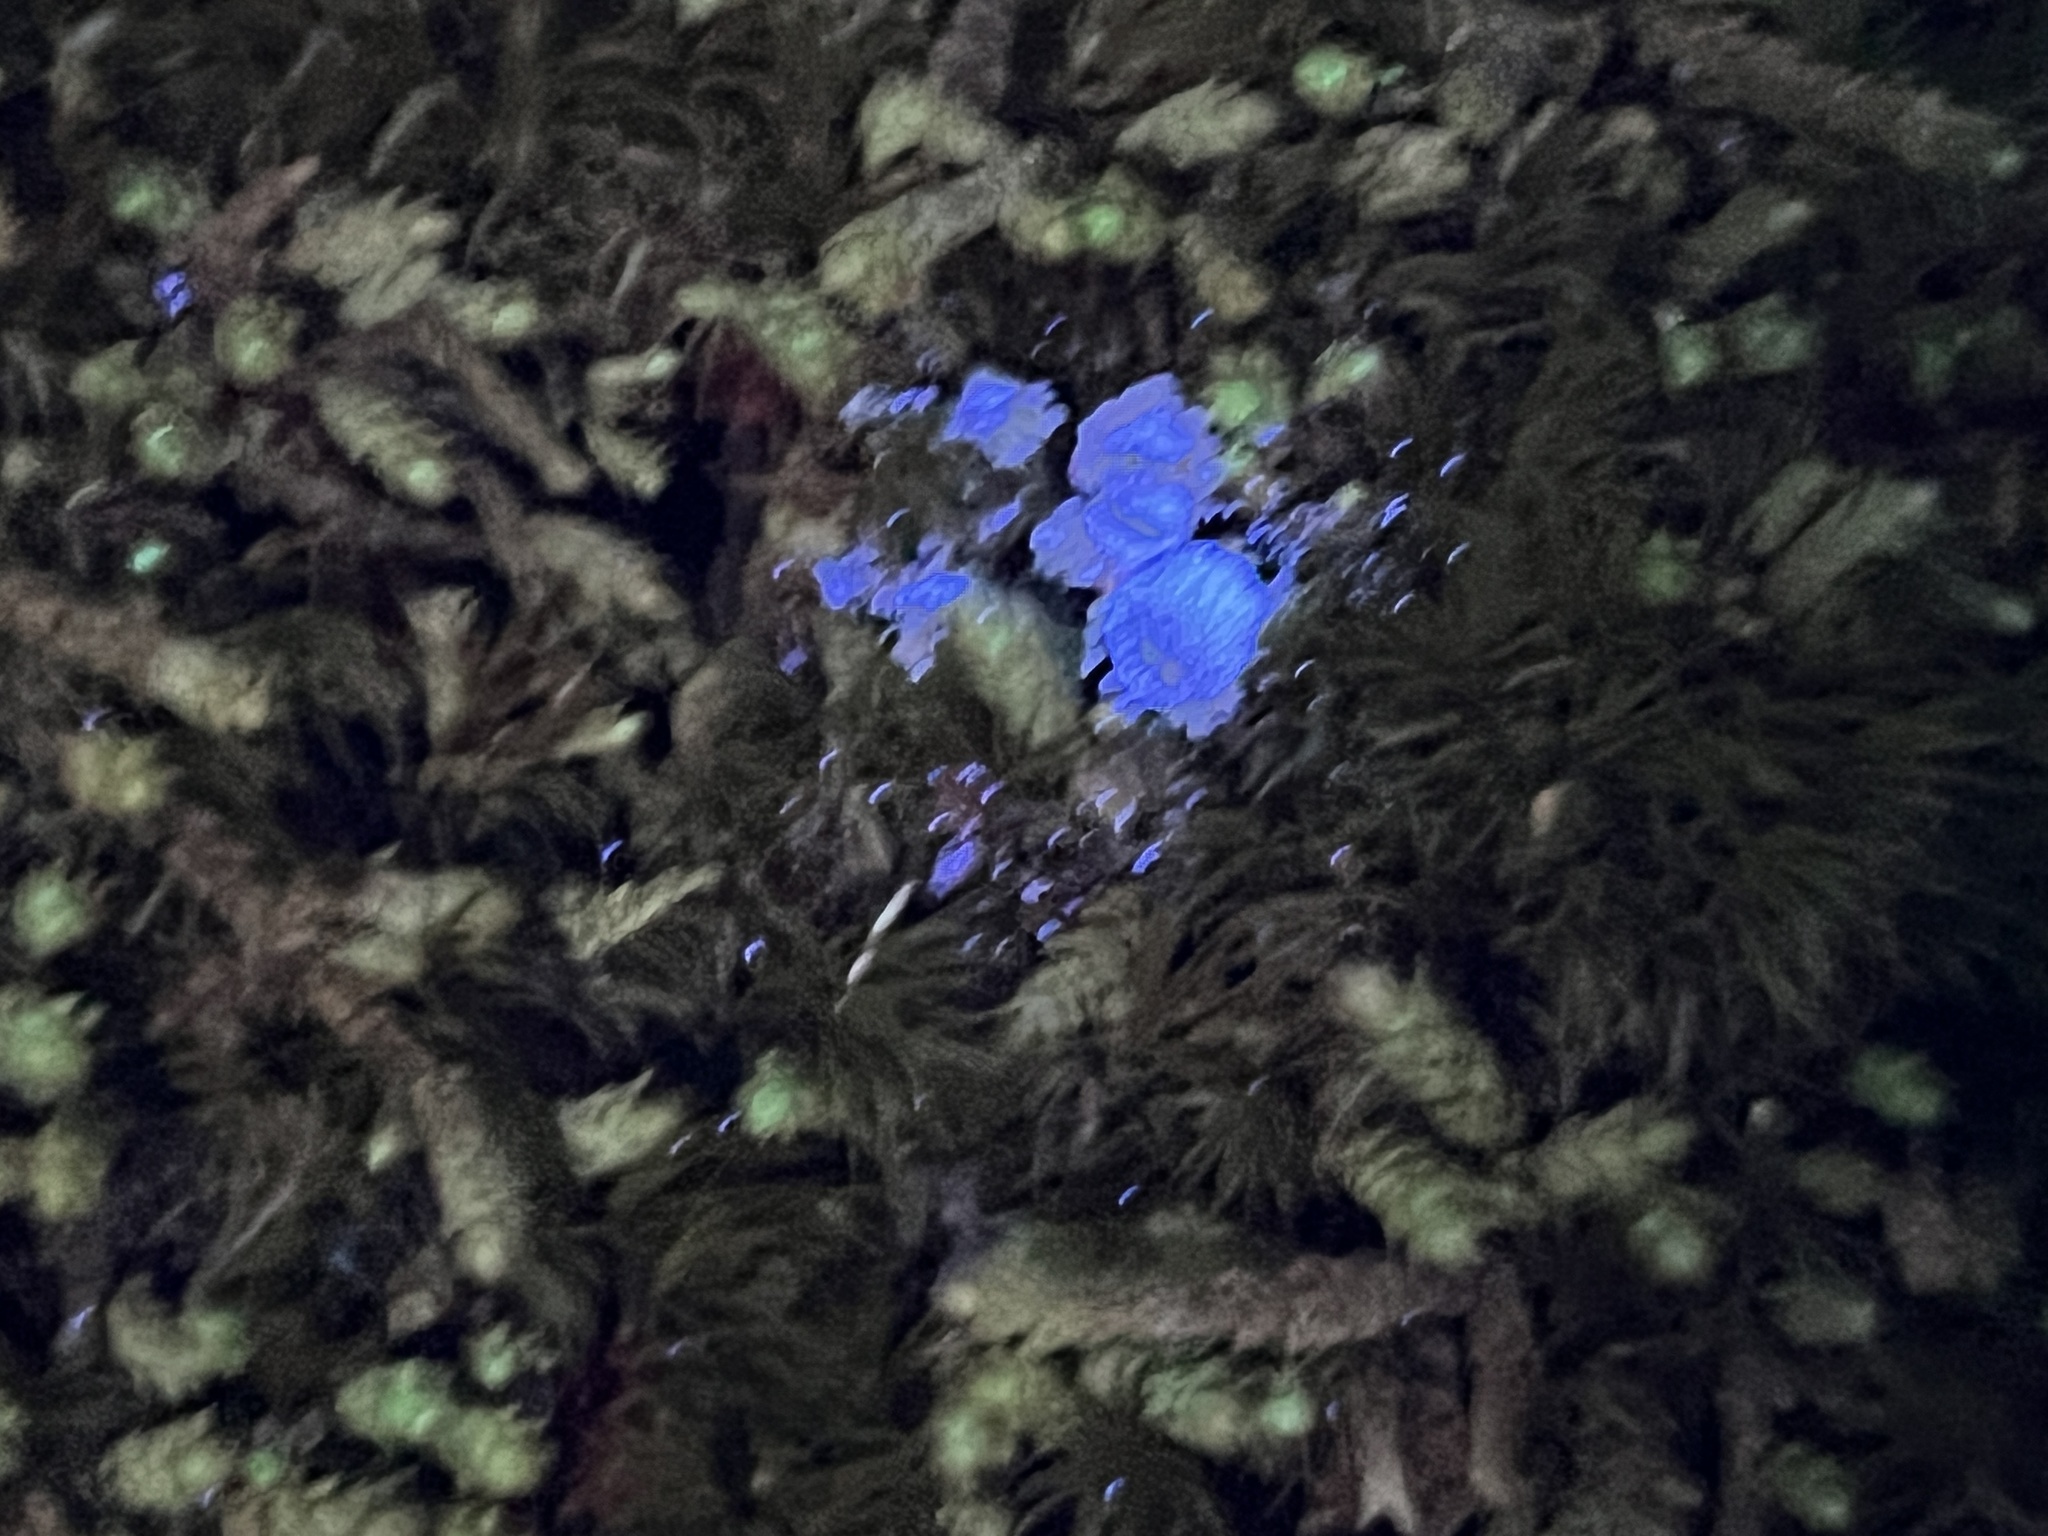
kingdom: Fungi
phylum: Ascomycota
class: Lecanoromycetes
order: Lecanorales
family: Cladoniaceae
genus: Cladonia
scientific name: Cladonia pyxidata
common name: Pebbled pixie cup
